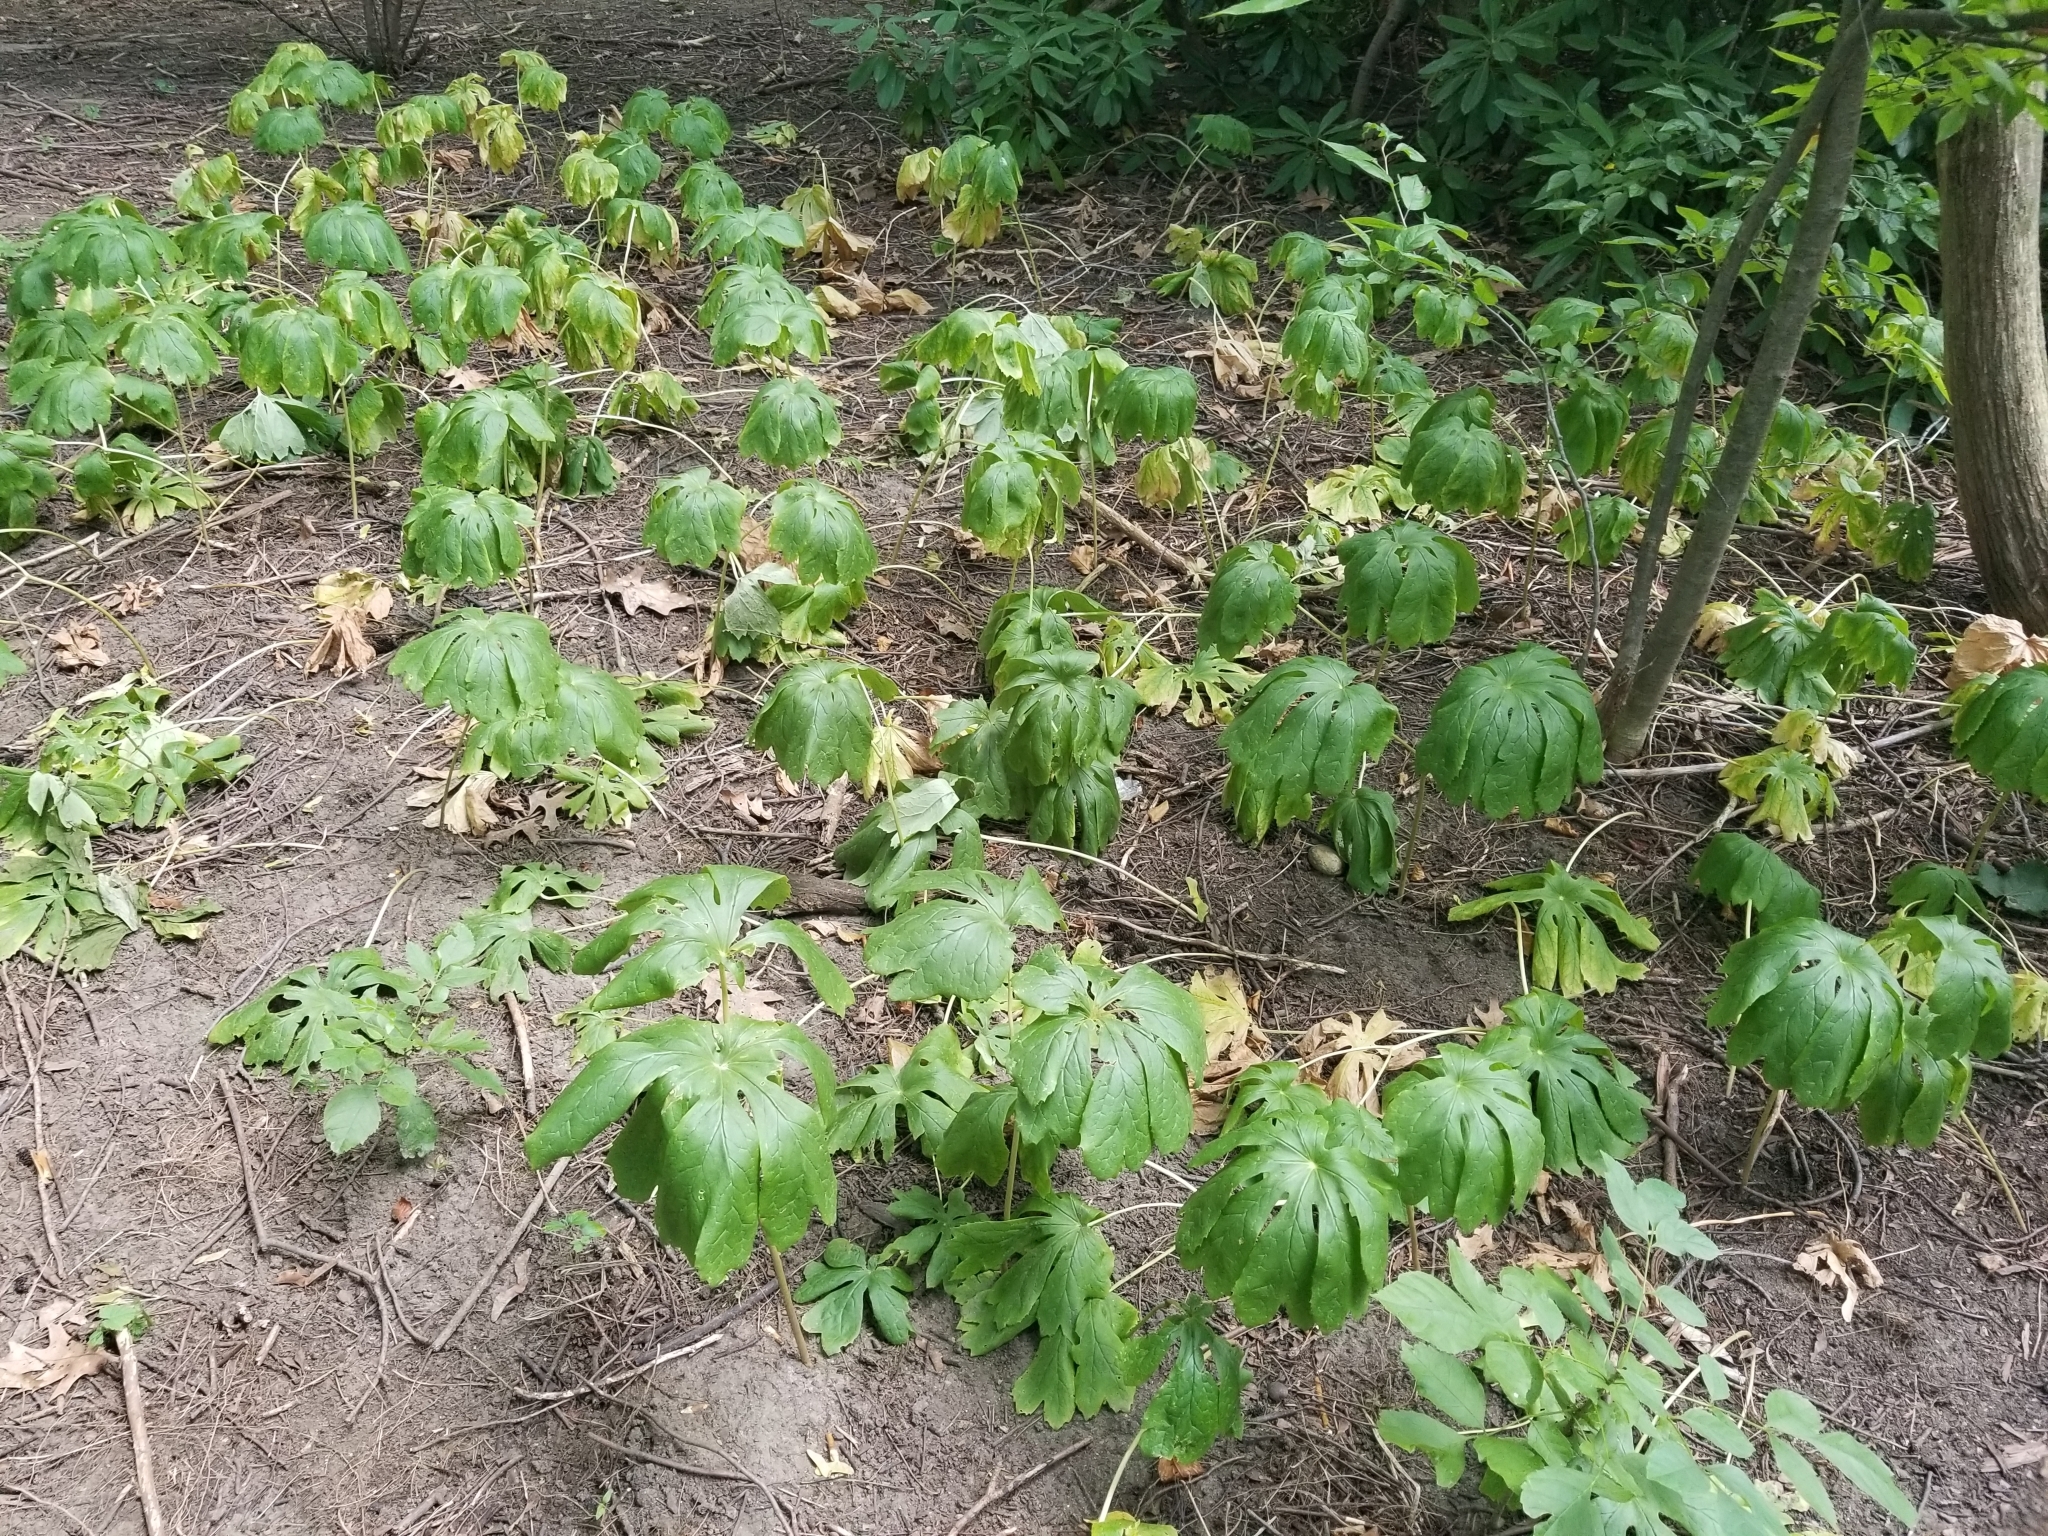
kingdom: Plantae
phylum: Tracheophyta
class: Magnoliopsida
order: Ranunculales
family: Berberidaceae
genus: Podophyllum
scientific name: Podophyllum peltatum
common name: Wild mandrake
